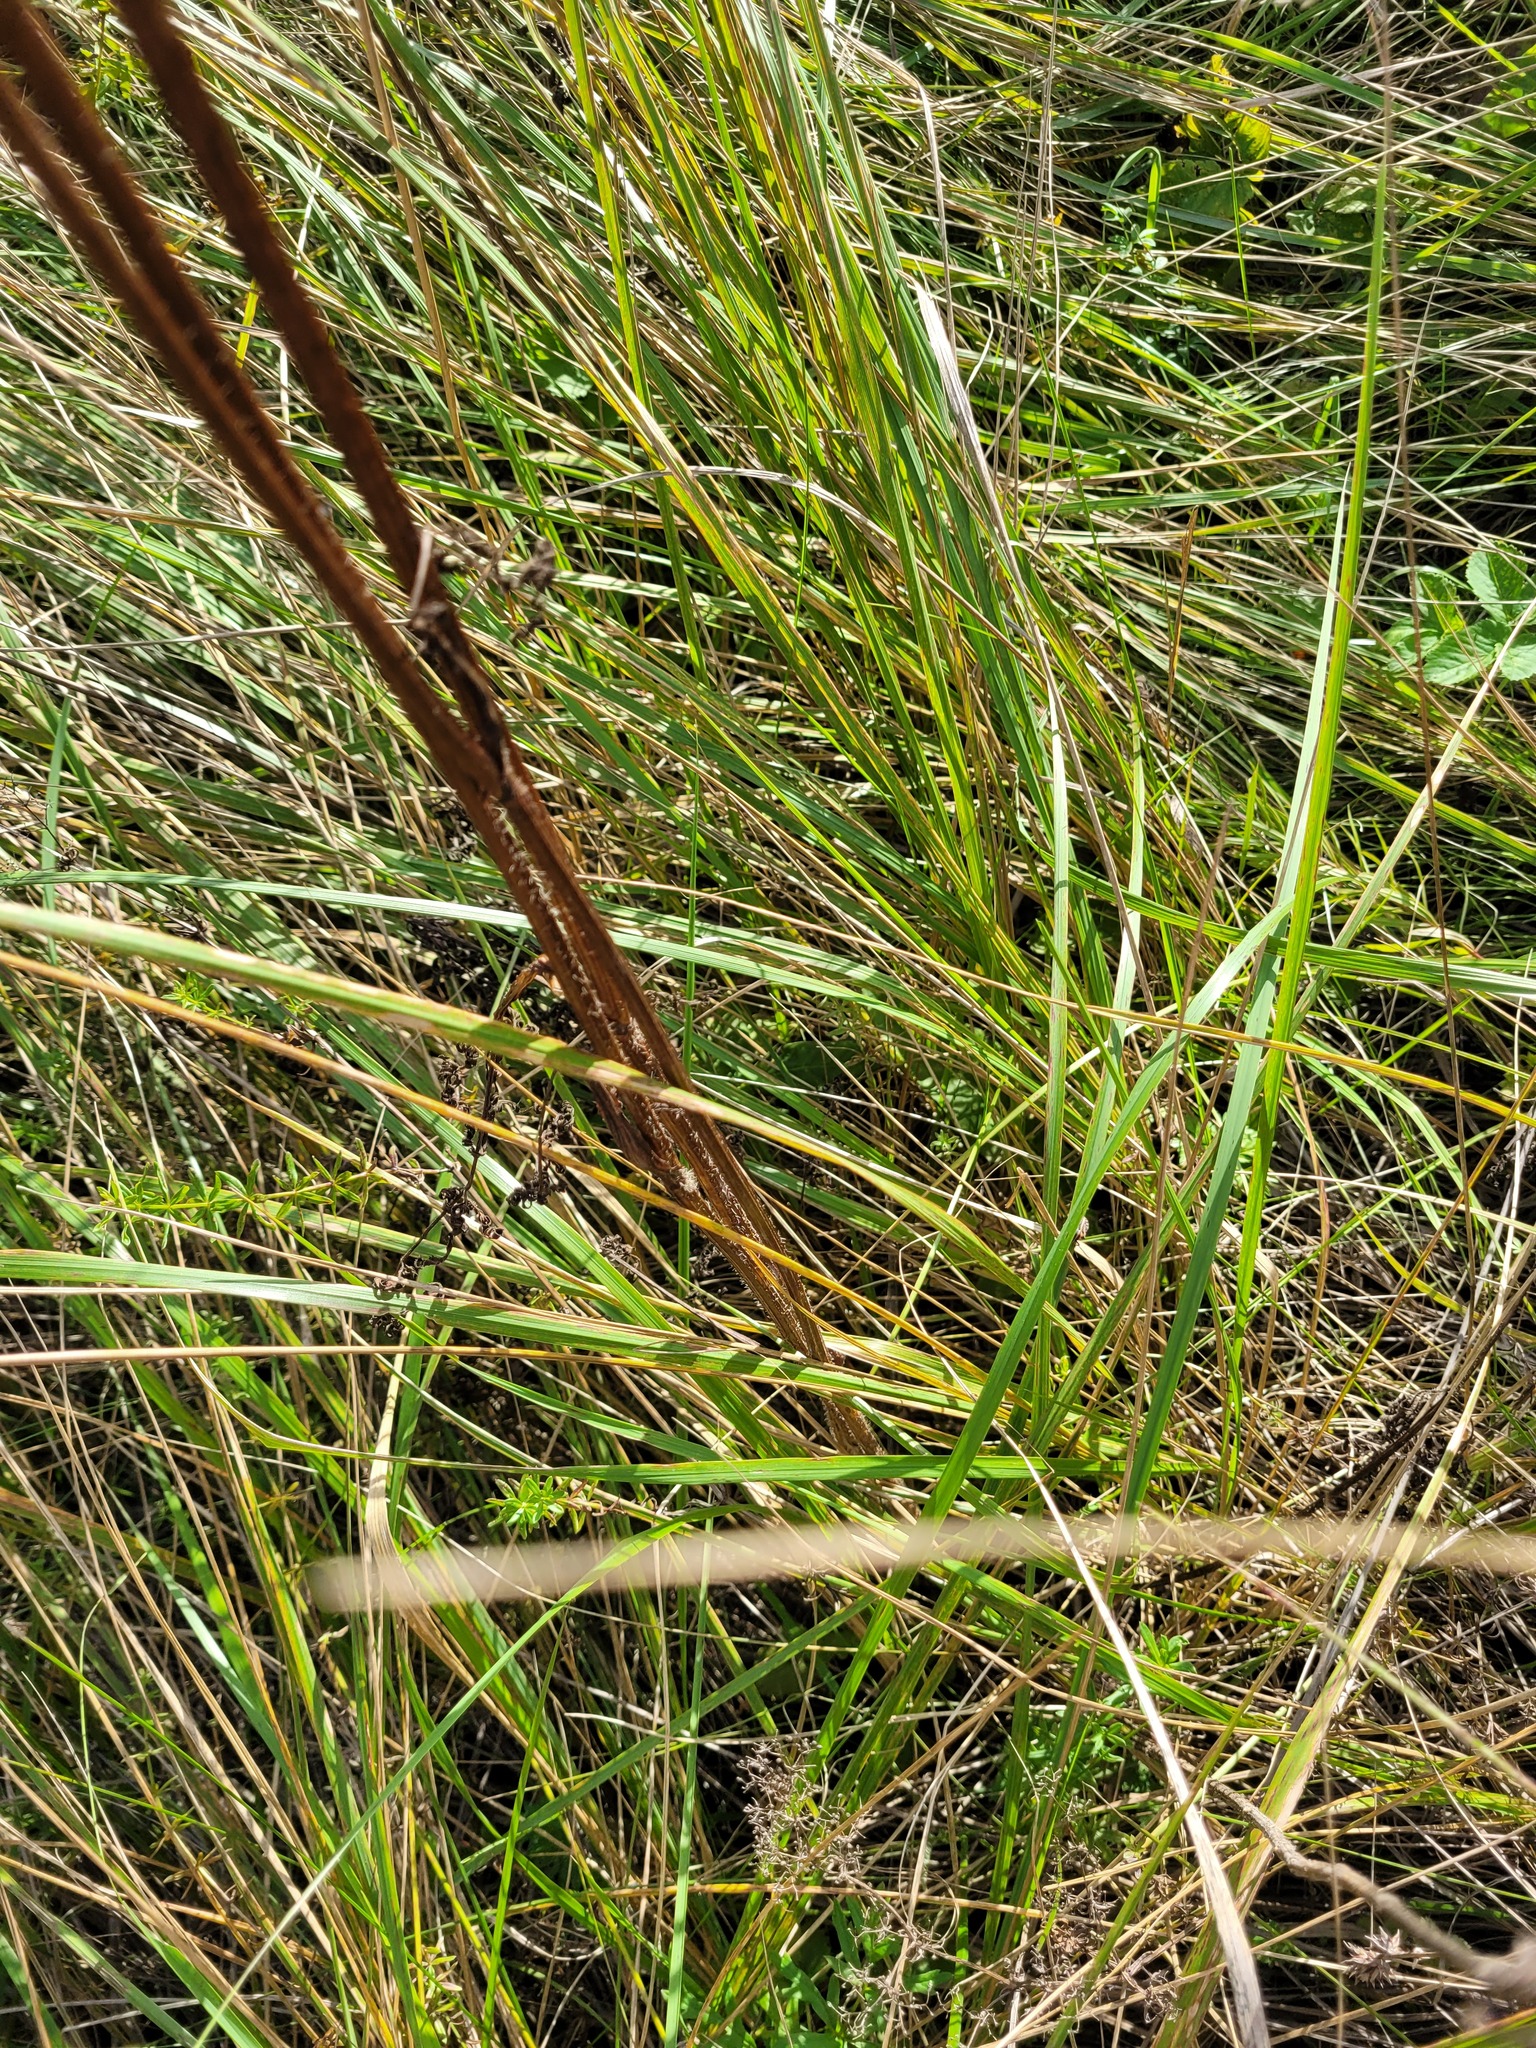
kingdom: Plantae
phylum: Tracheophyta
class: Magnoliopsida
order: Apiales
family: Apiaceae
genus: Silphiodaucus
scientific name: Silphiodaucus prutenicus
